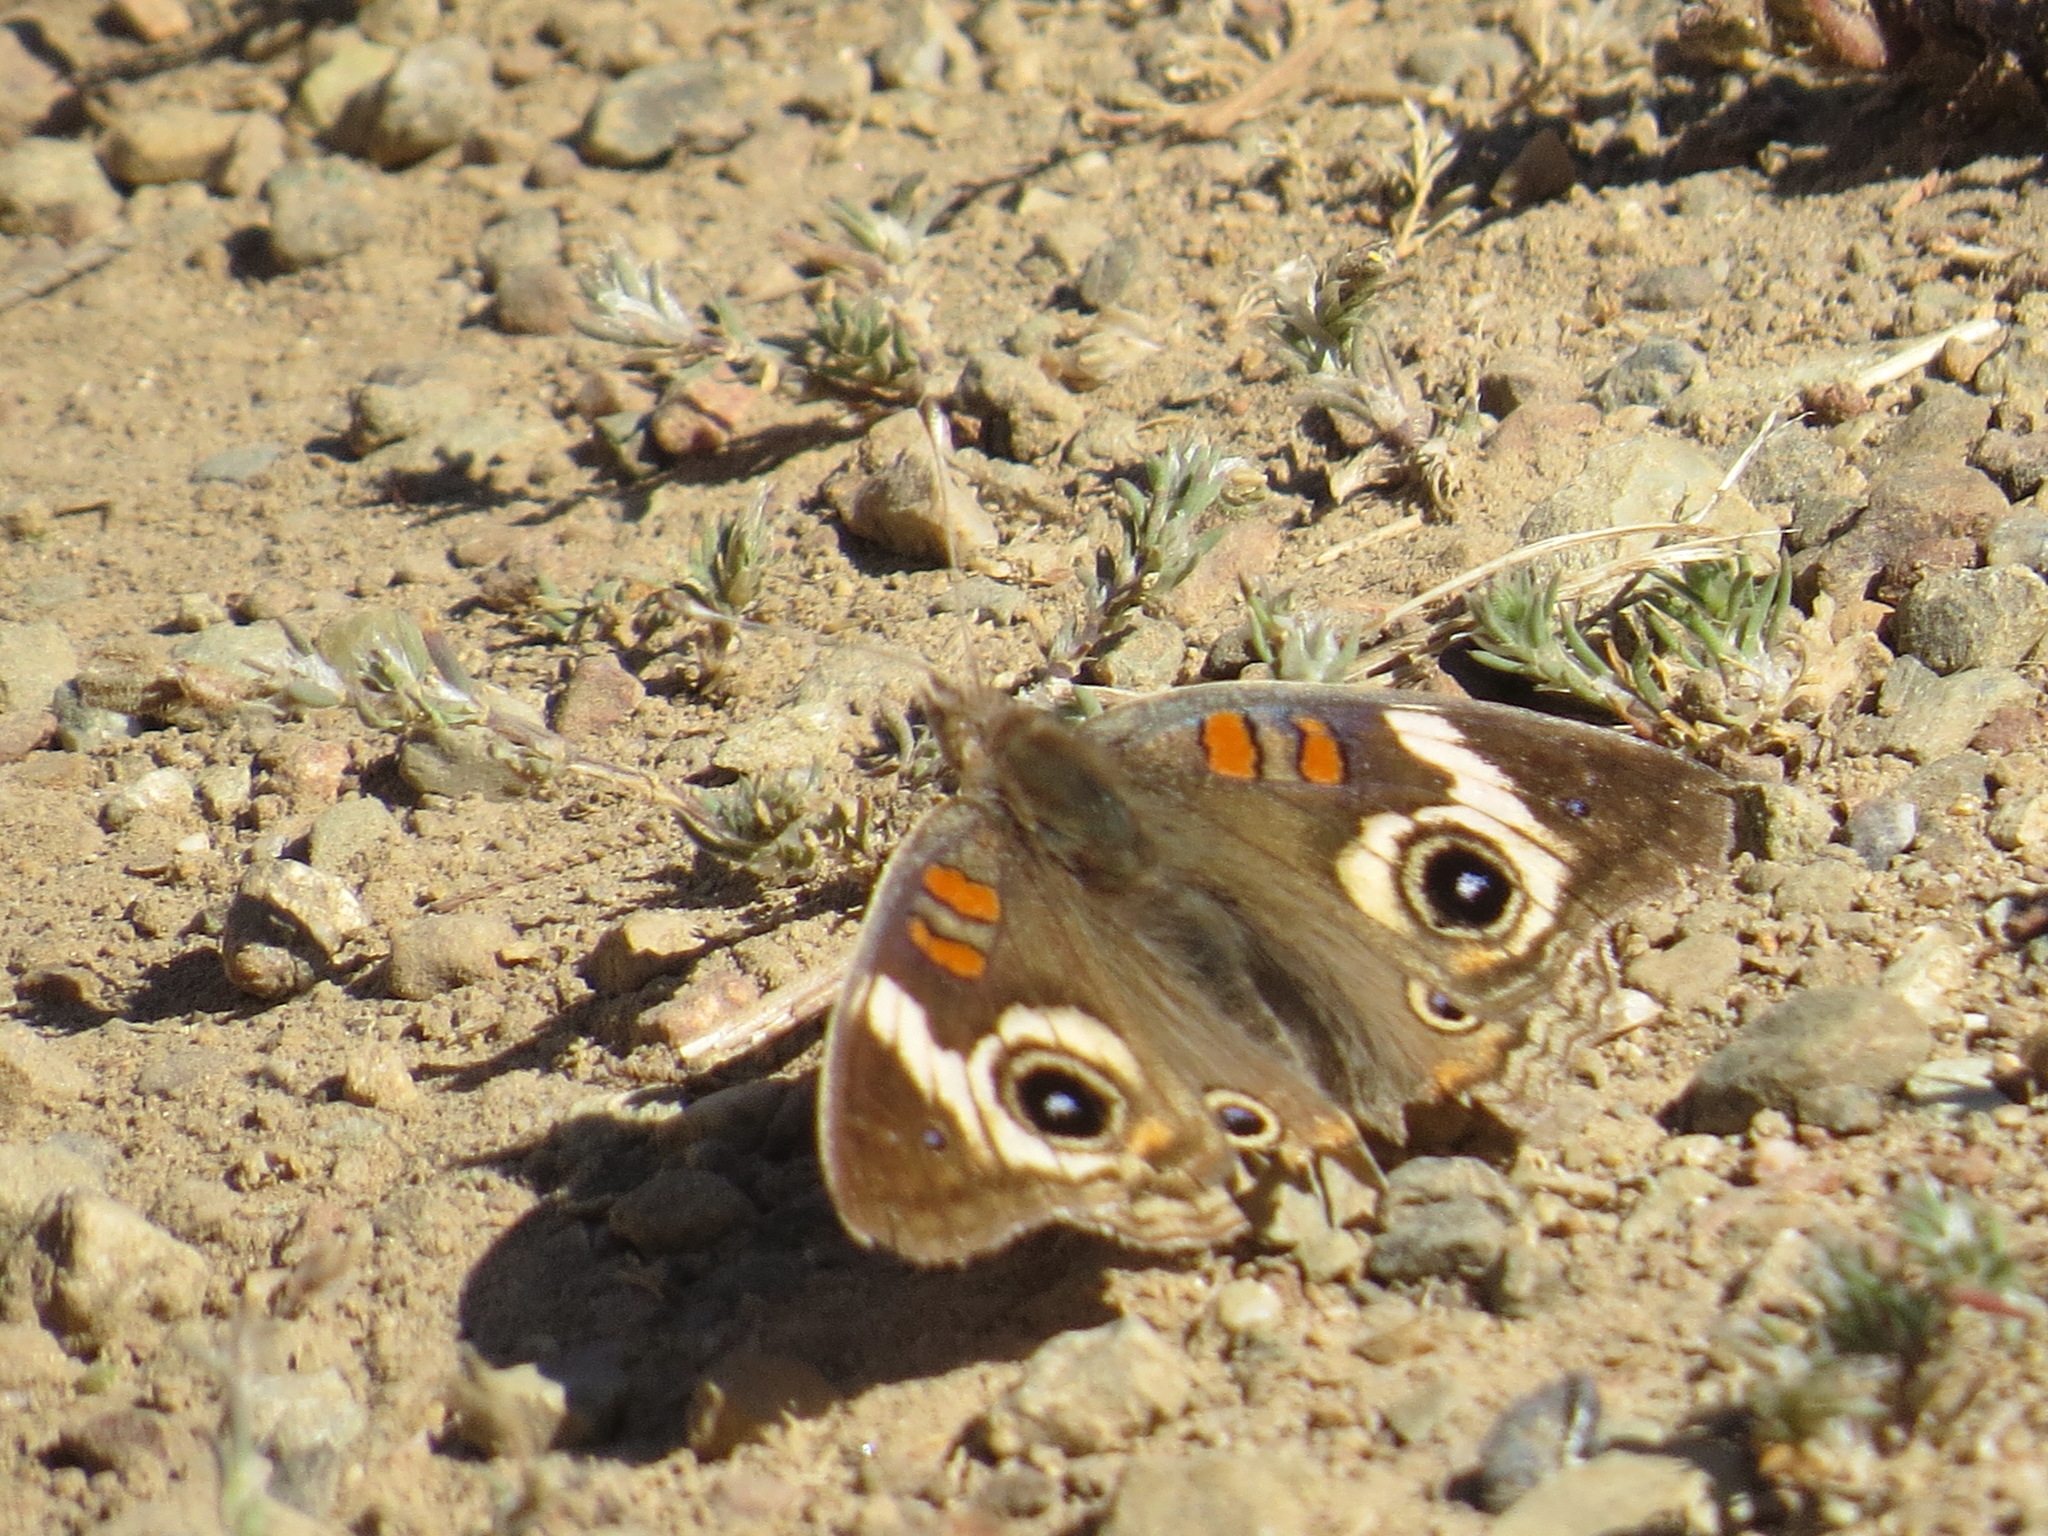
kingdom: Animalia
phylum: Arthropoda
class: Insecta
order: Lepidoptera
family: Nymphalidae
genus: Junonia
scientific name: Junonia grisea
